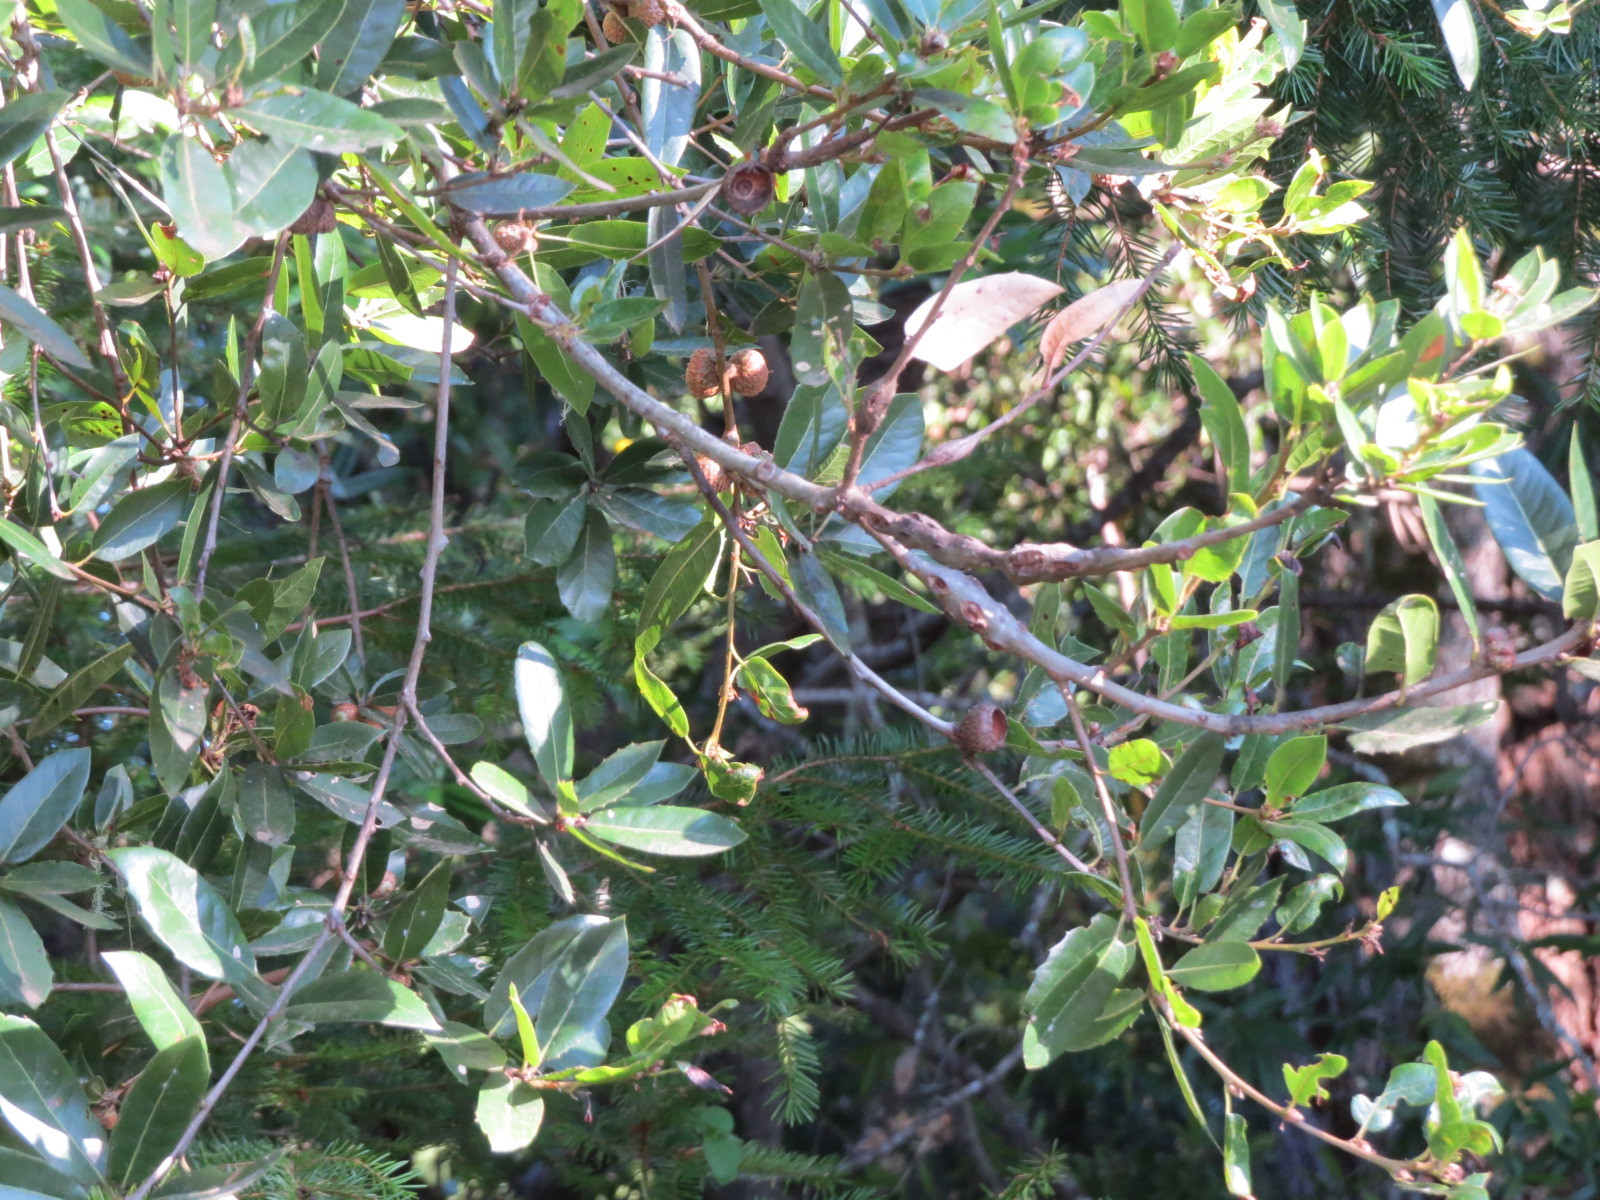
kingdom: Animalia
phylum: Arthropoda
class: Insecta
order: Hymenoptera
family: Cynipidae
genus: Callirhytis
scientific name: Callirhytis
